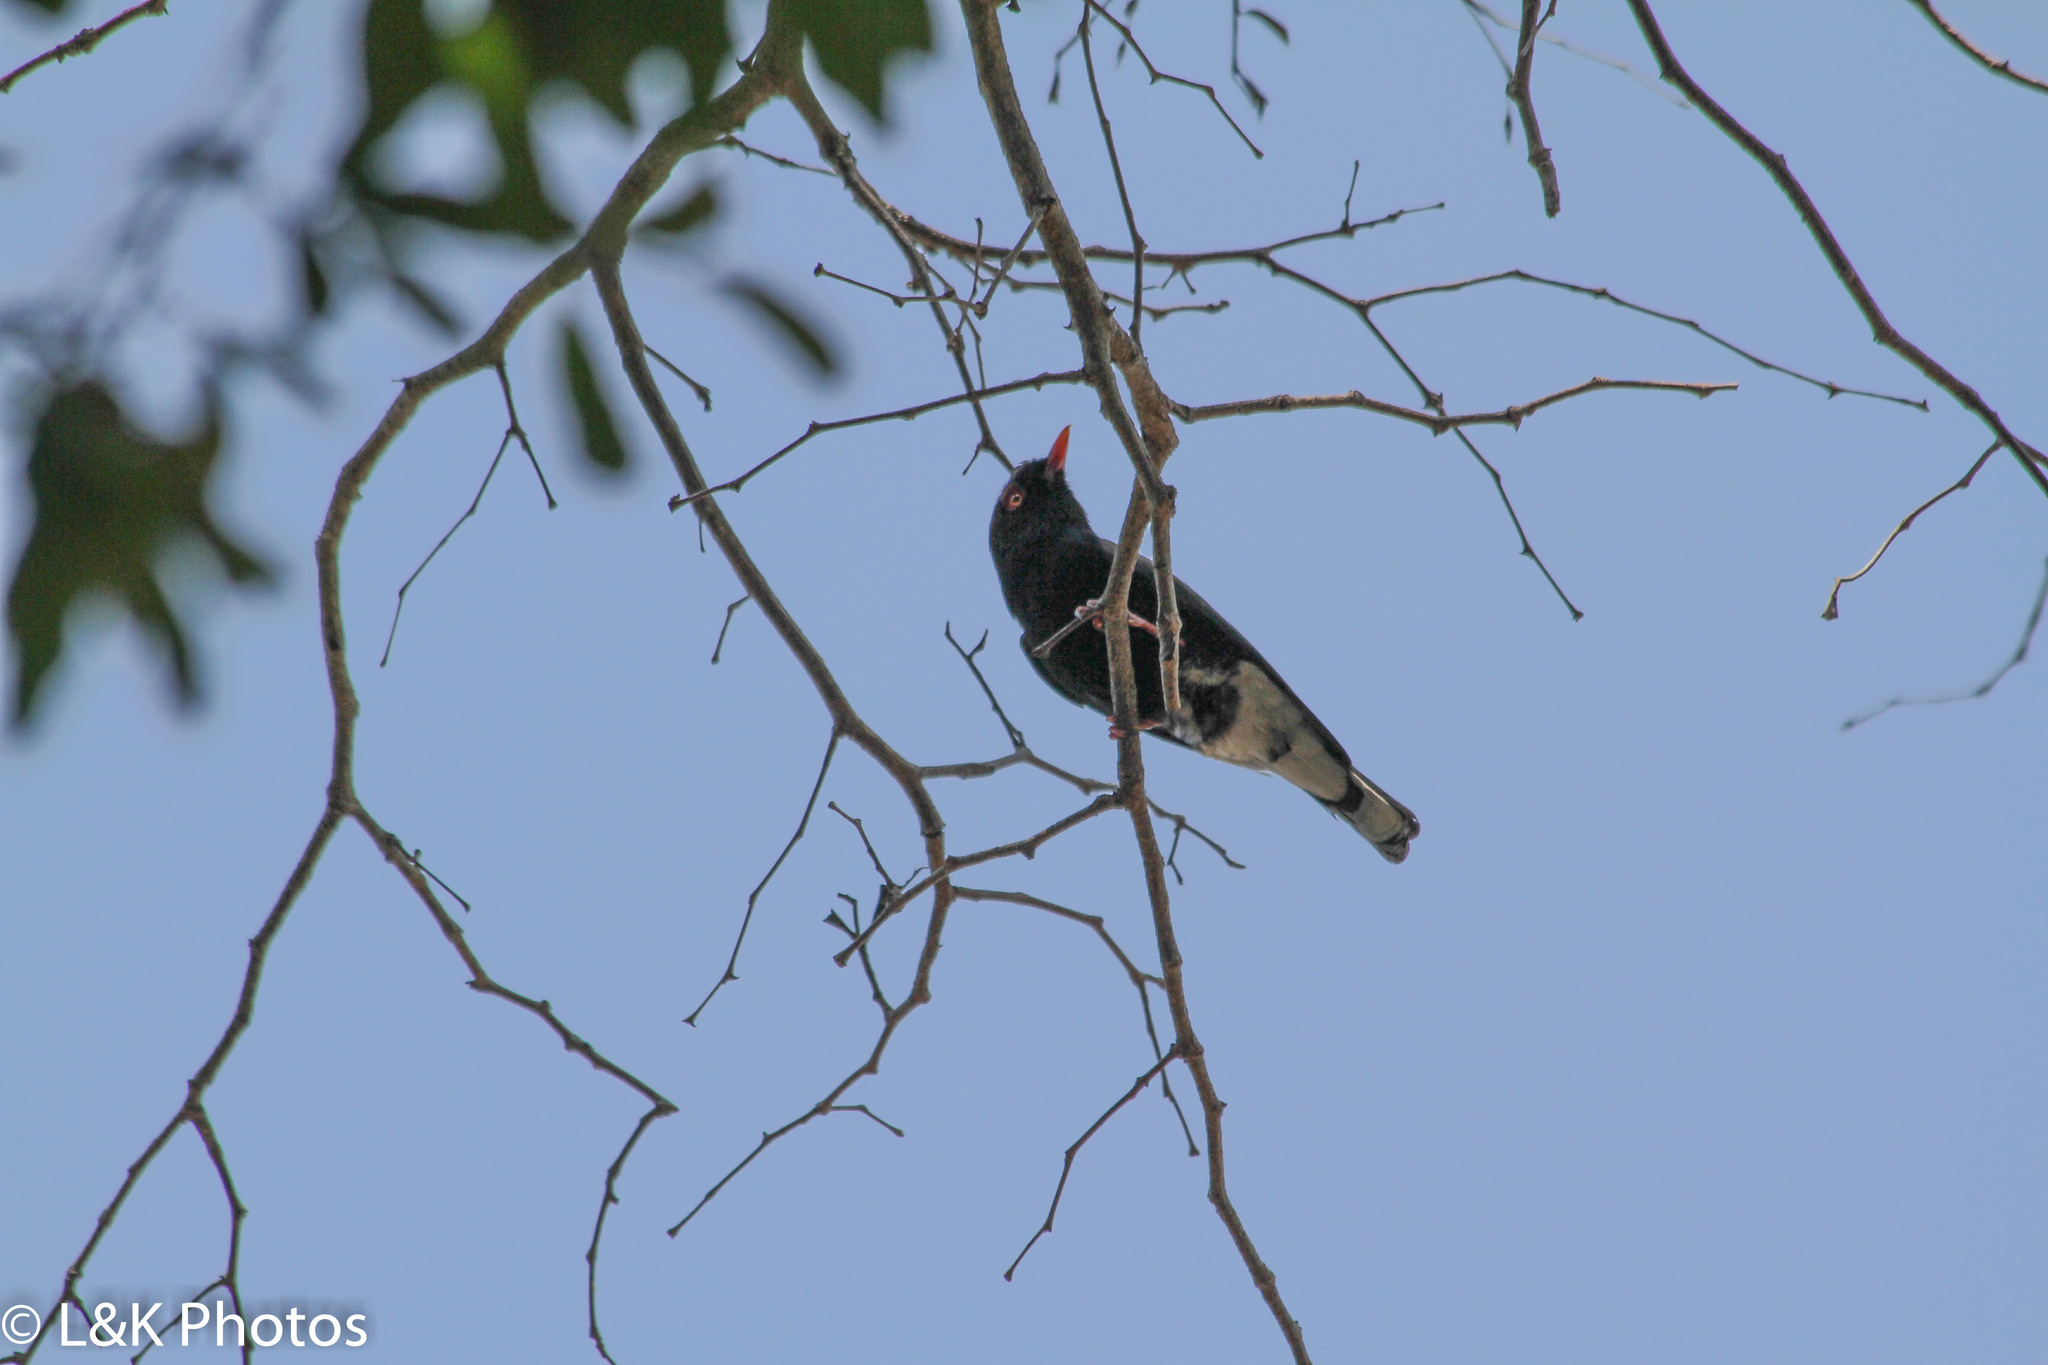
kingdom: Animalia
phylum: Chordata
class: Aves
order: Passeriformes
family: Prionopidae
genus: Prionops
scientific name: Prionops retzii
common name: Retz's helmetshrike
